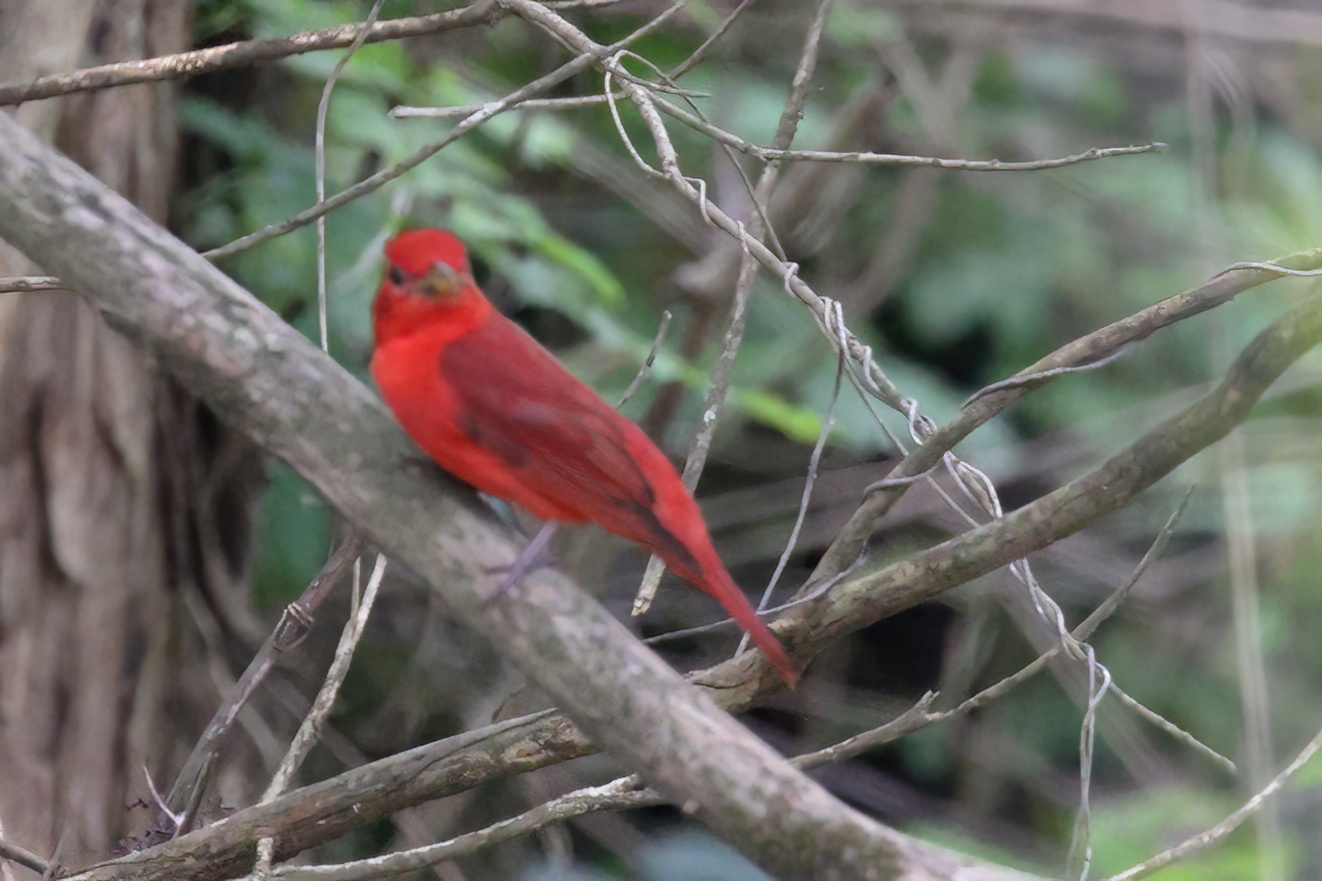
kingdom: Animalia
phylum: Chordata
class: Aves
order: Passeriformes
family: Cardinalidae
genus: Piranga
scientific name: Piranga rubra
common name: Summer tanager
